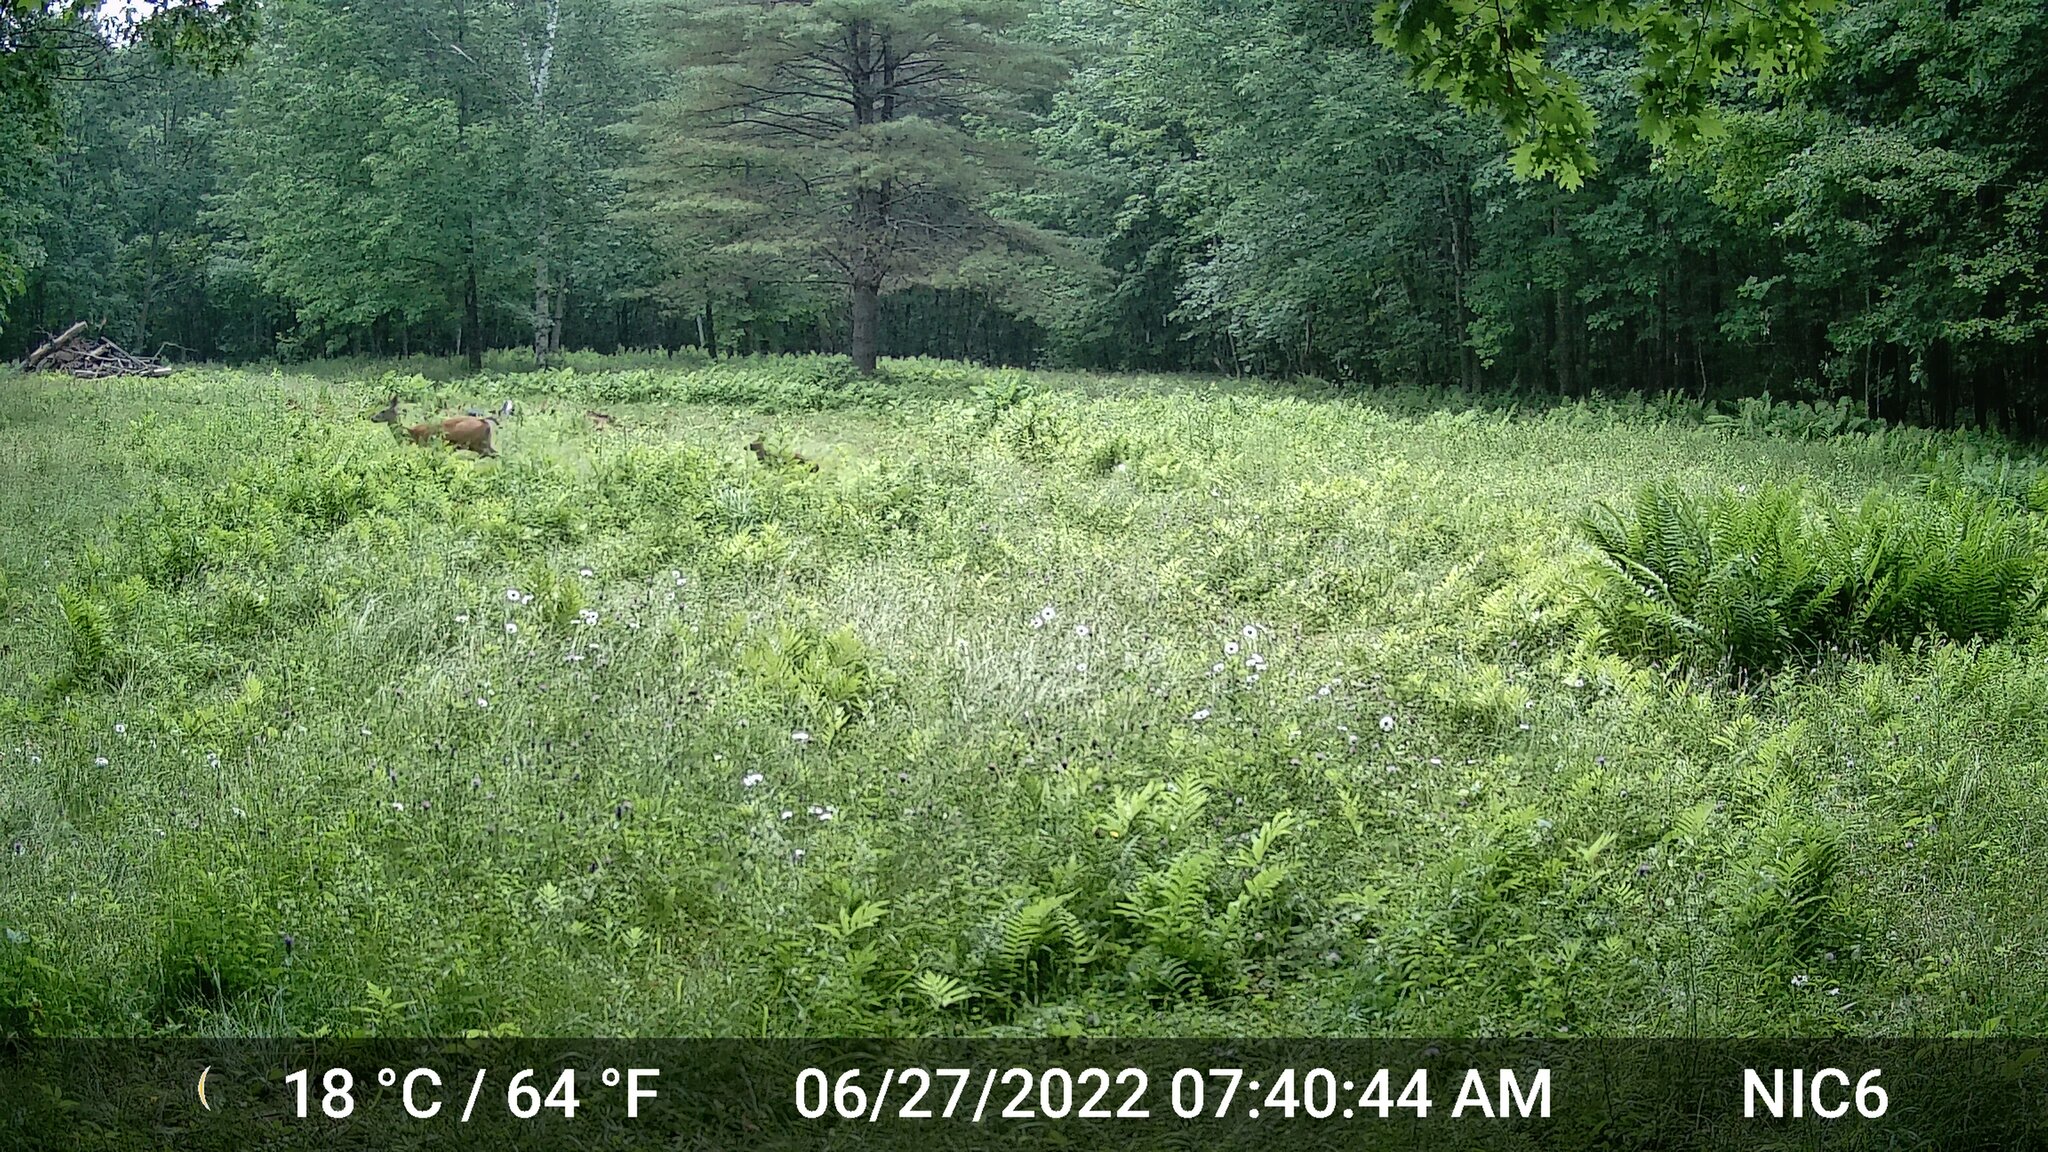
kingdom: Animalia
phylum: Chordata
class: Mammalia
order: Artiodactyla
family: Cervidae
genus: Odocoileus
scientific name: Odocoileus virginianus
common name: White-tailed deer
